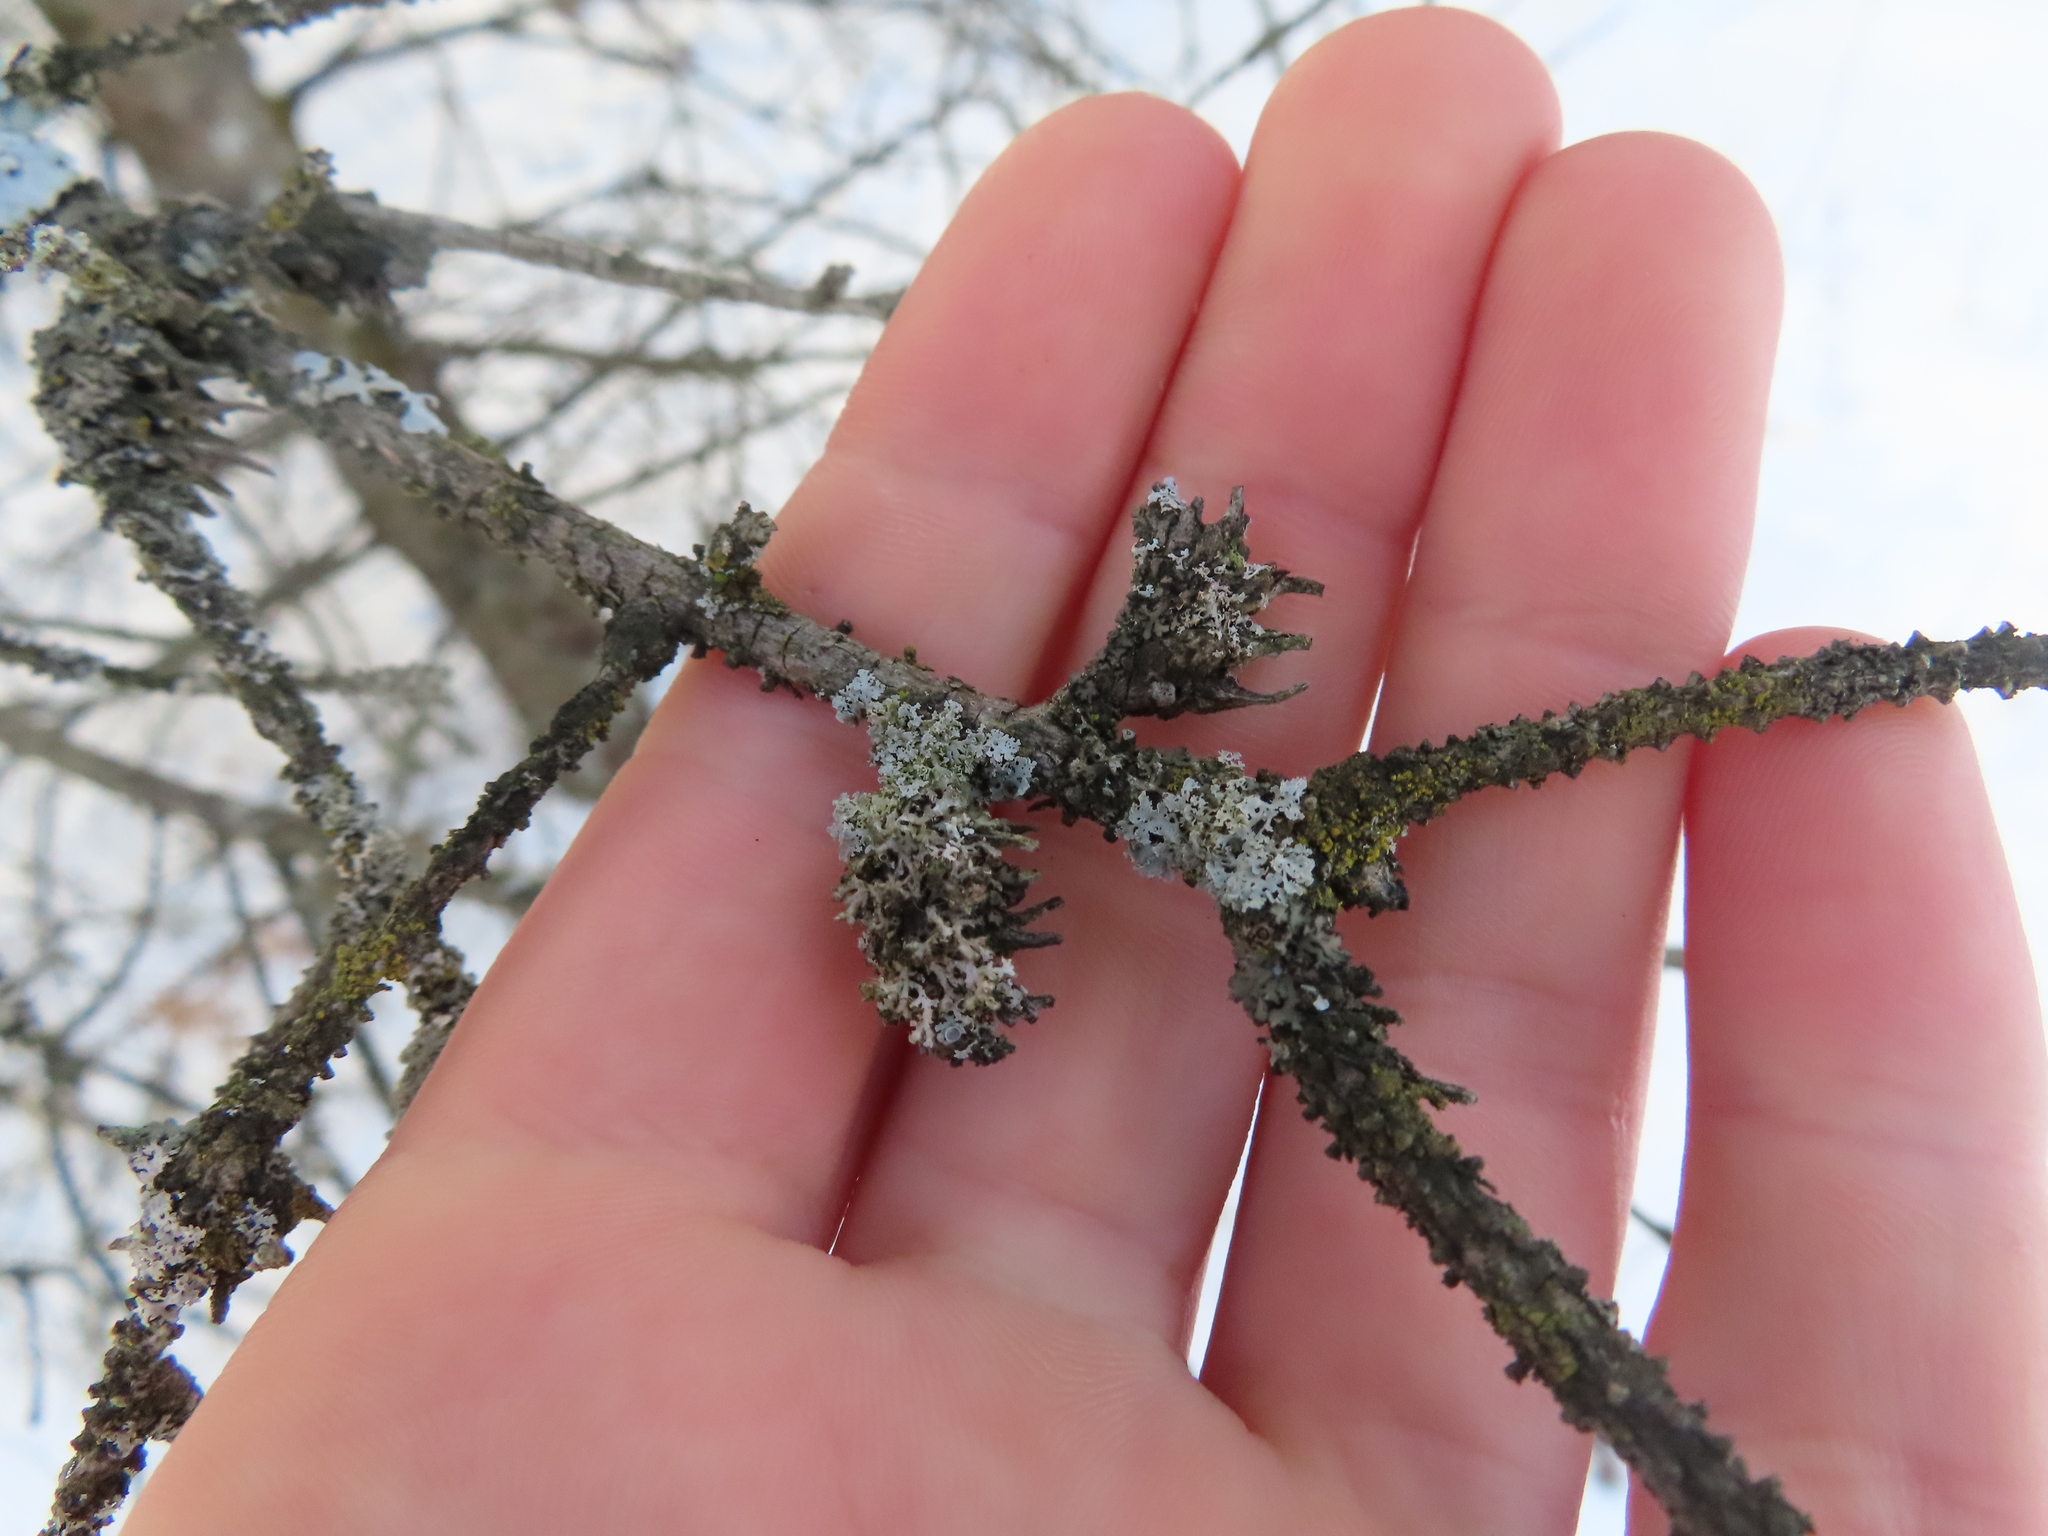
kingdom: Animalia
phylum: Arthropoda
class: Insecta
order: Hemiptera
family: Adelgidae
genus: Adelges
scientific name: Adelges abietis
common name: Eastern spruce gall adelgid
